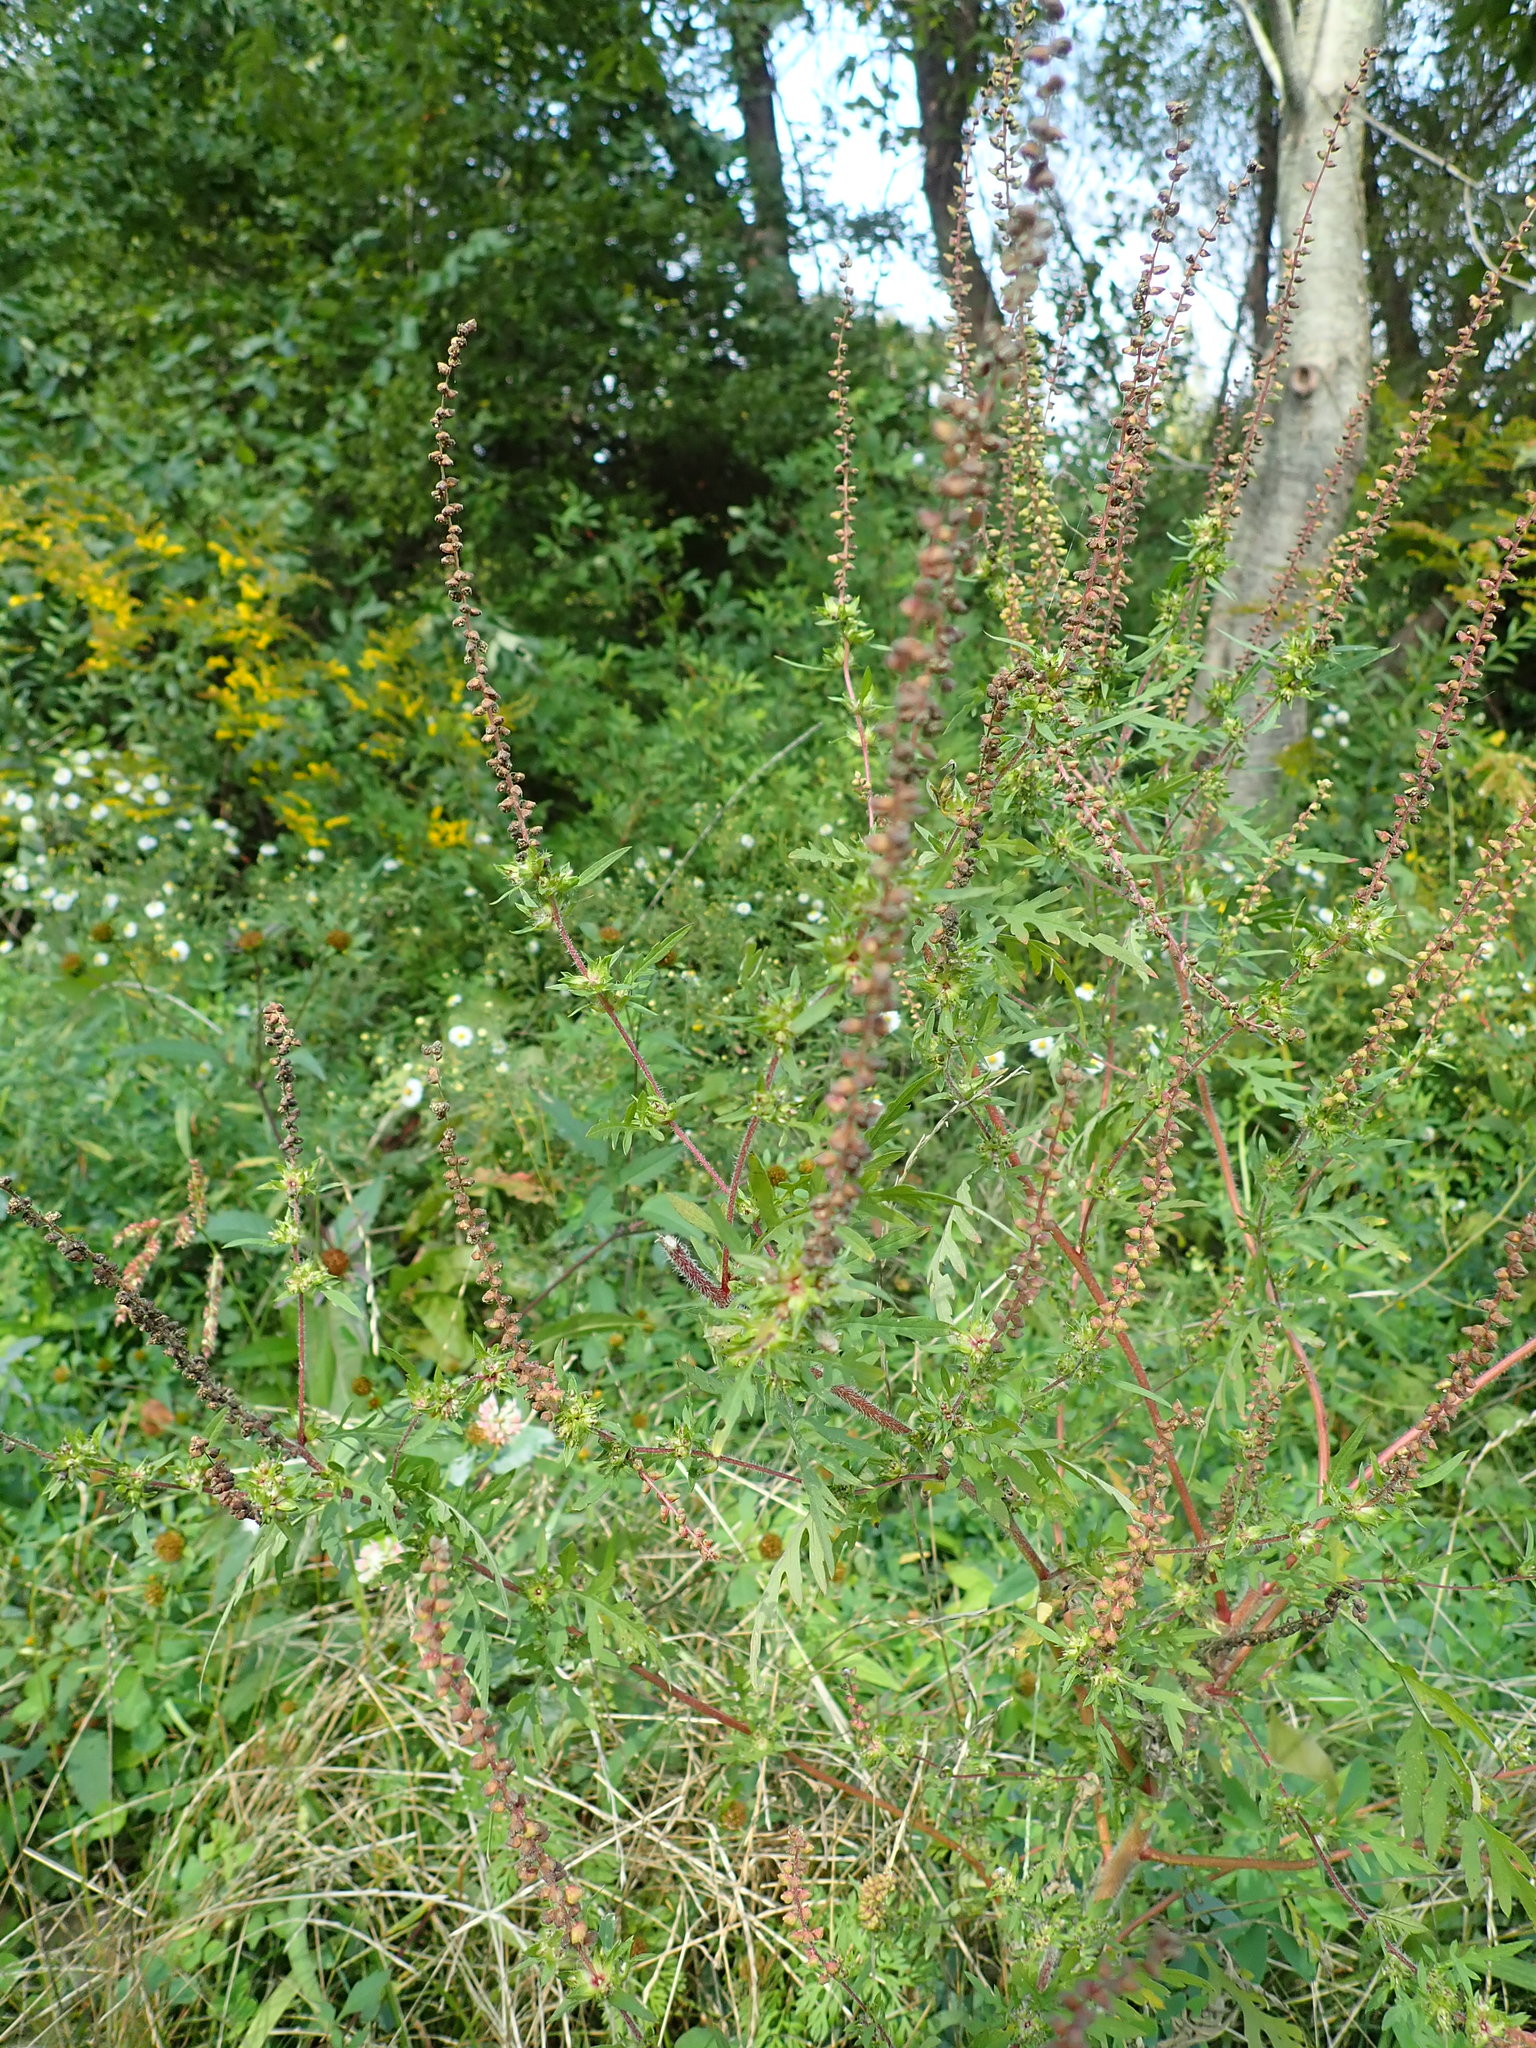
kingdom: Plantae
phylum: Tracheophyta
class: Magnoliopsida
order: Asterales
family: Asteraceae
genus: Ambrosia
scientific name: Ambrosia artemisiifolia
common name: Annual ragweed
